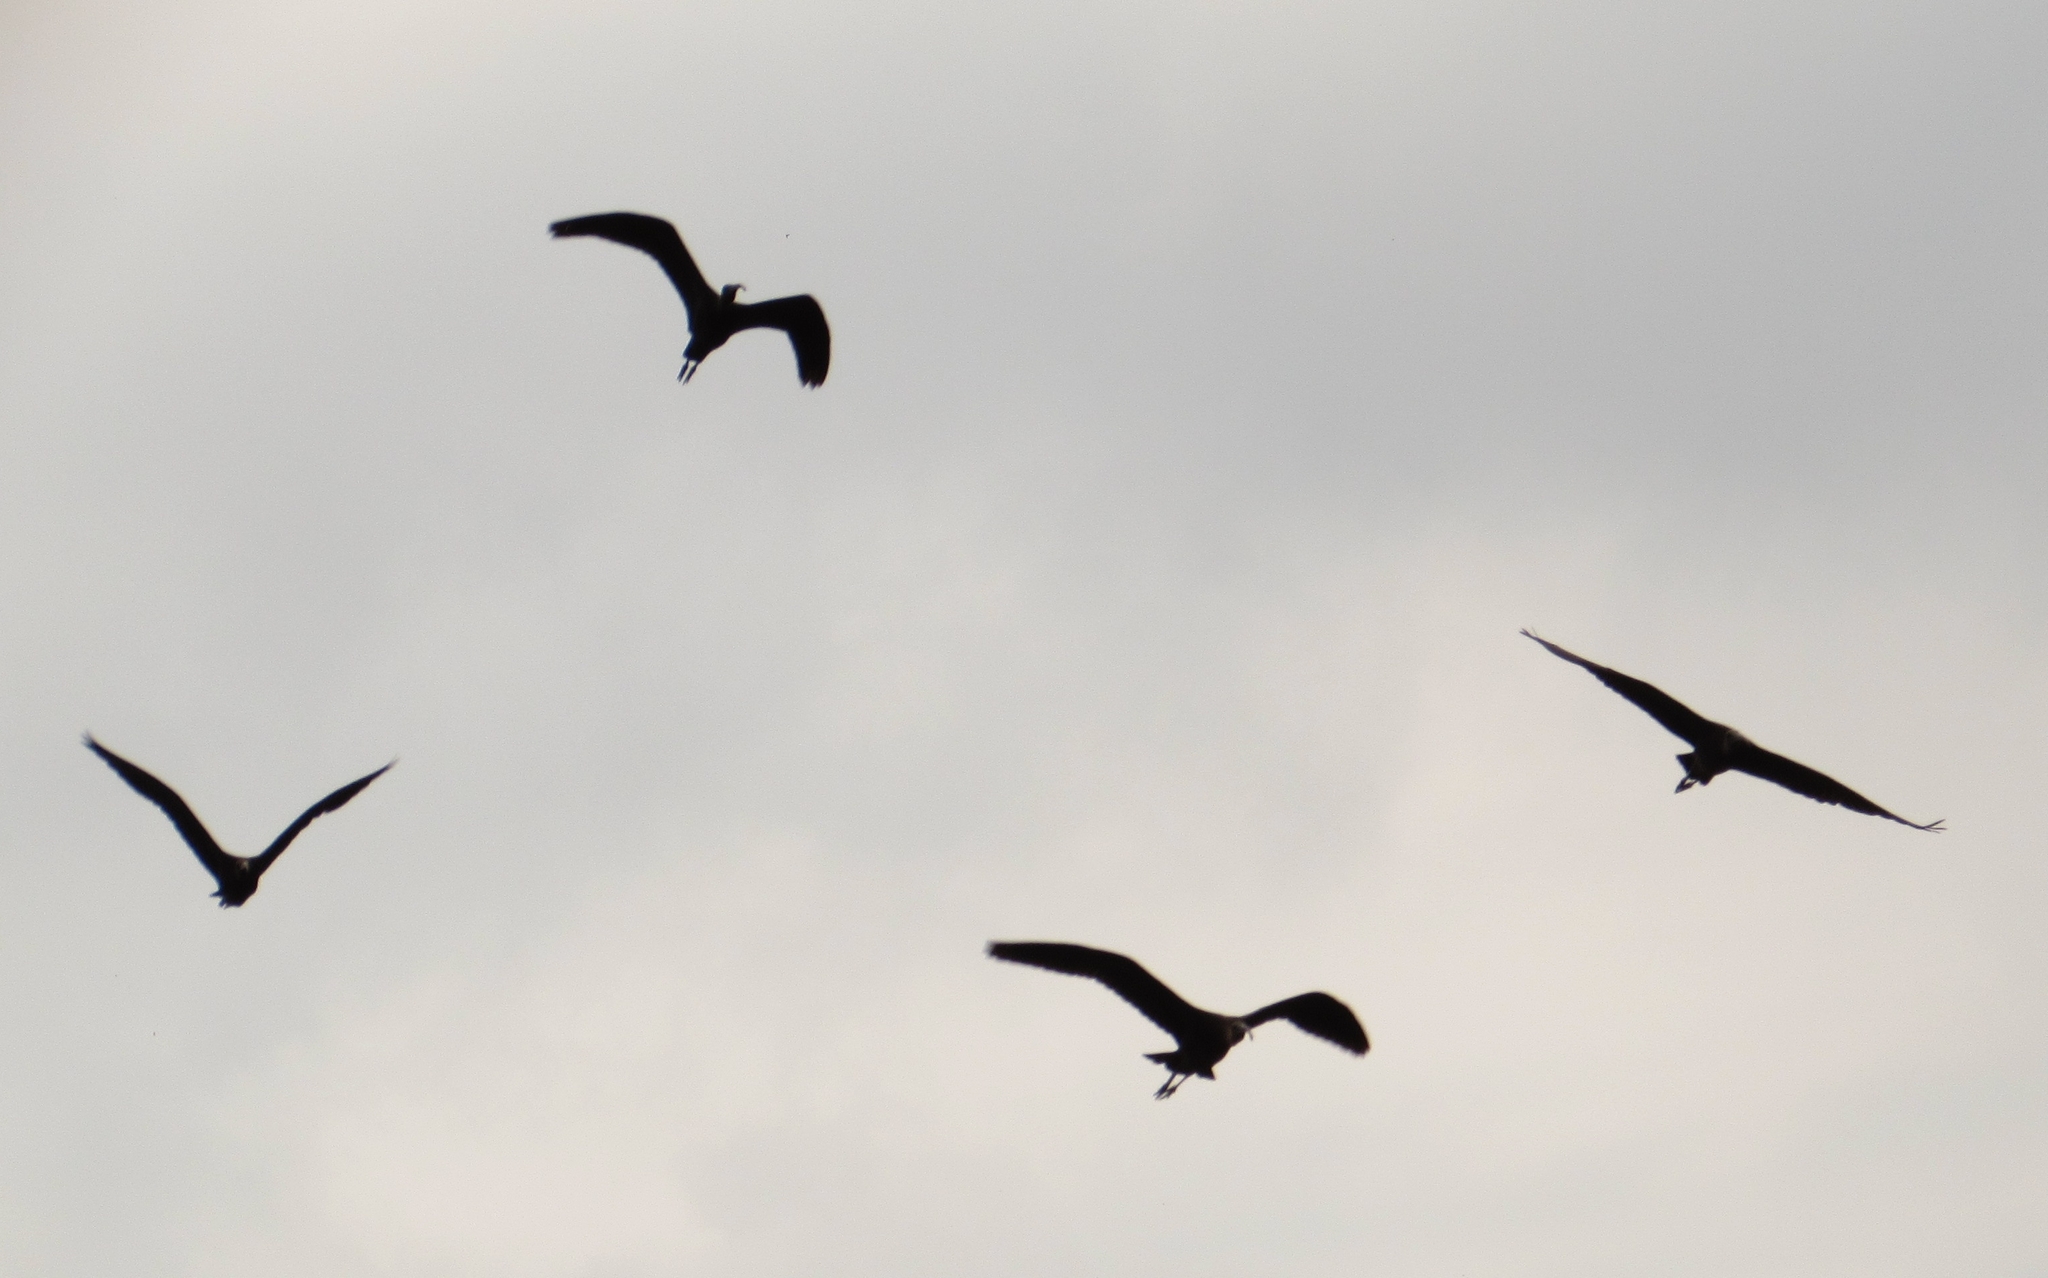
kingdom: Animalia
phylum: Chordata
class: Aves
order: Pelecaniformes
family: Threskiornithidae
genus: Plegadis
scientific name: Plegadis falcinellus
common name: Glossy ibis
